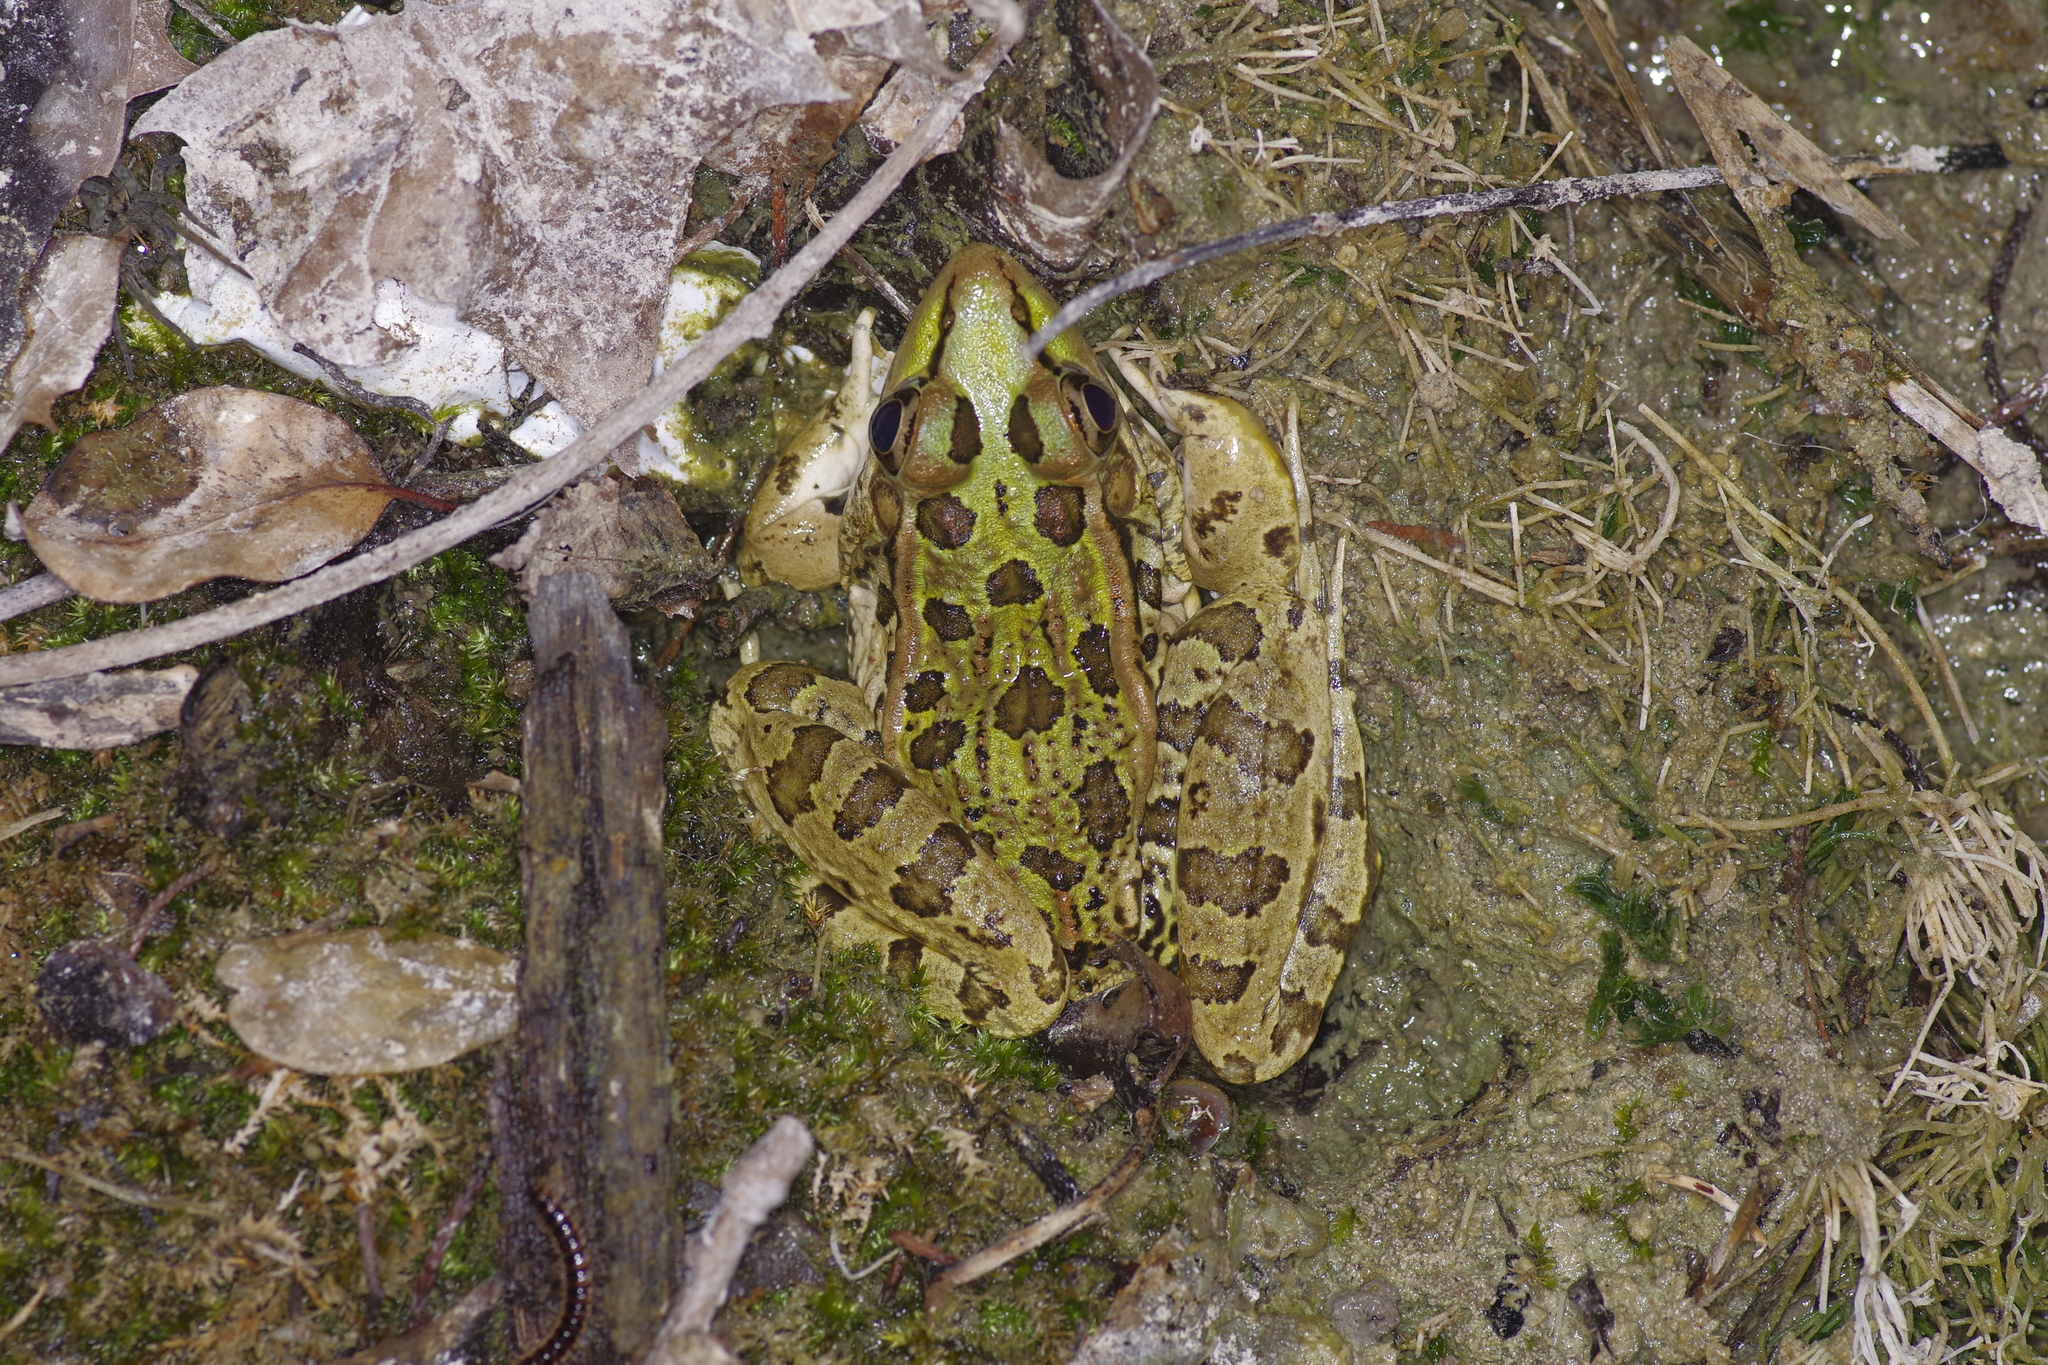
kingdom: Animalia
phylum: Chordata
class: Amphibia
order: Anura
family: Ranidae
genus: Lithobates
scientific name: Lithobates berlandieri
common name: Rio grande leopard frog
